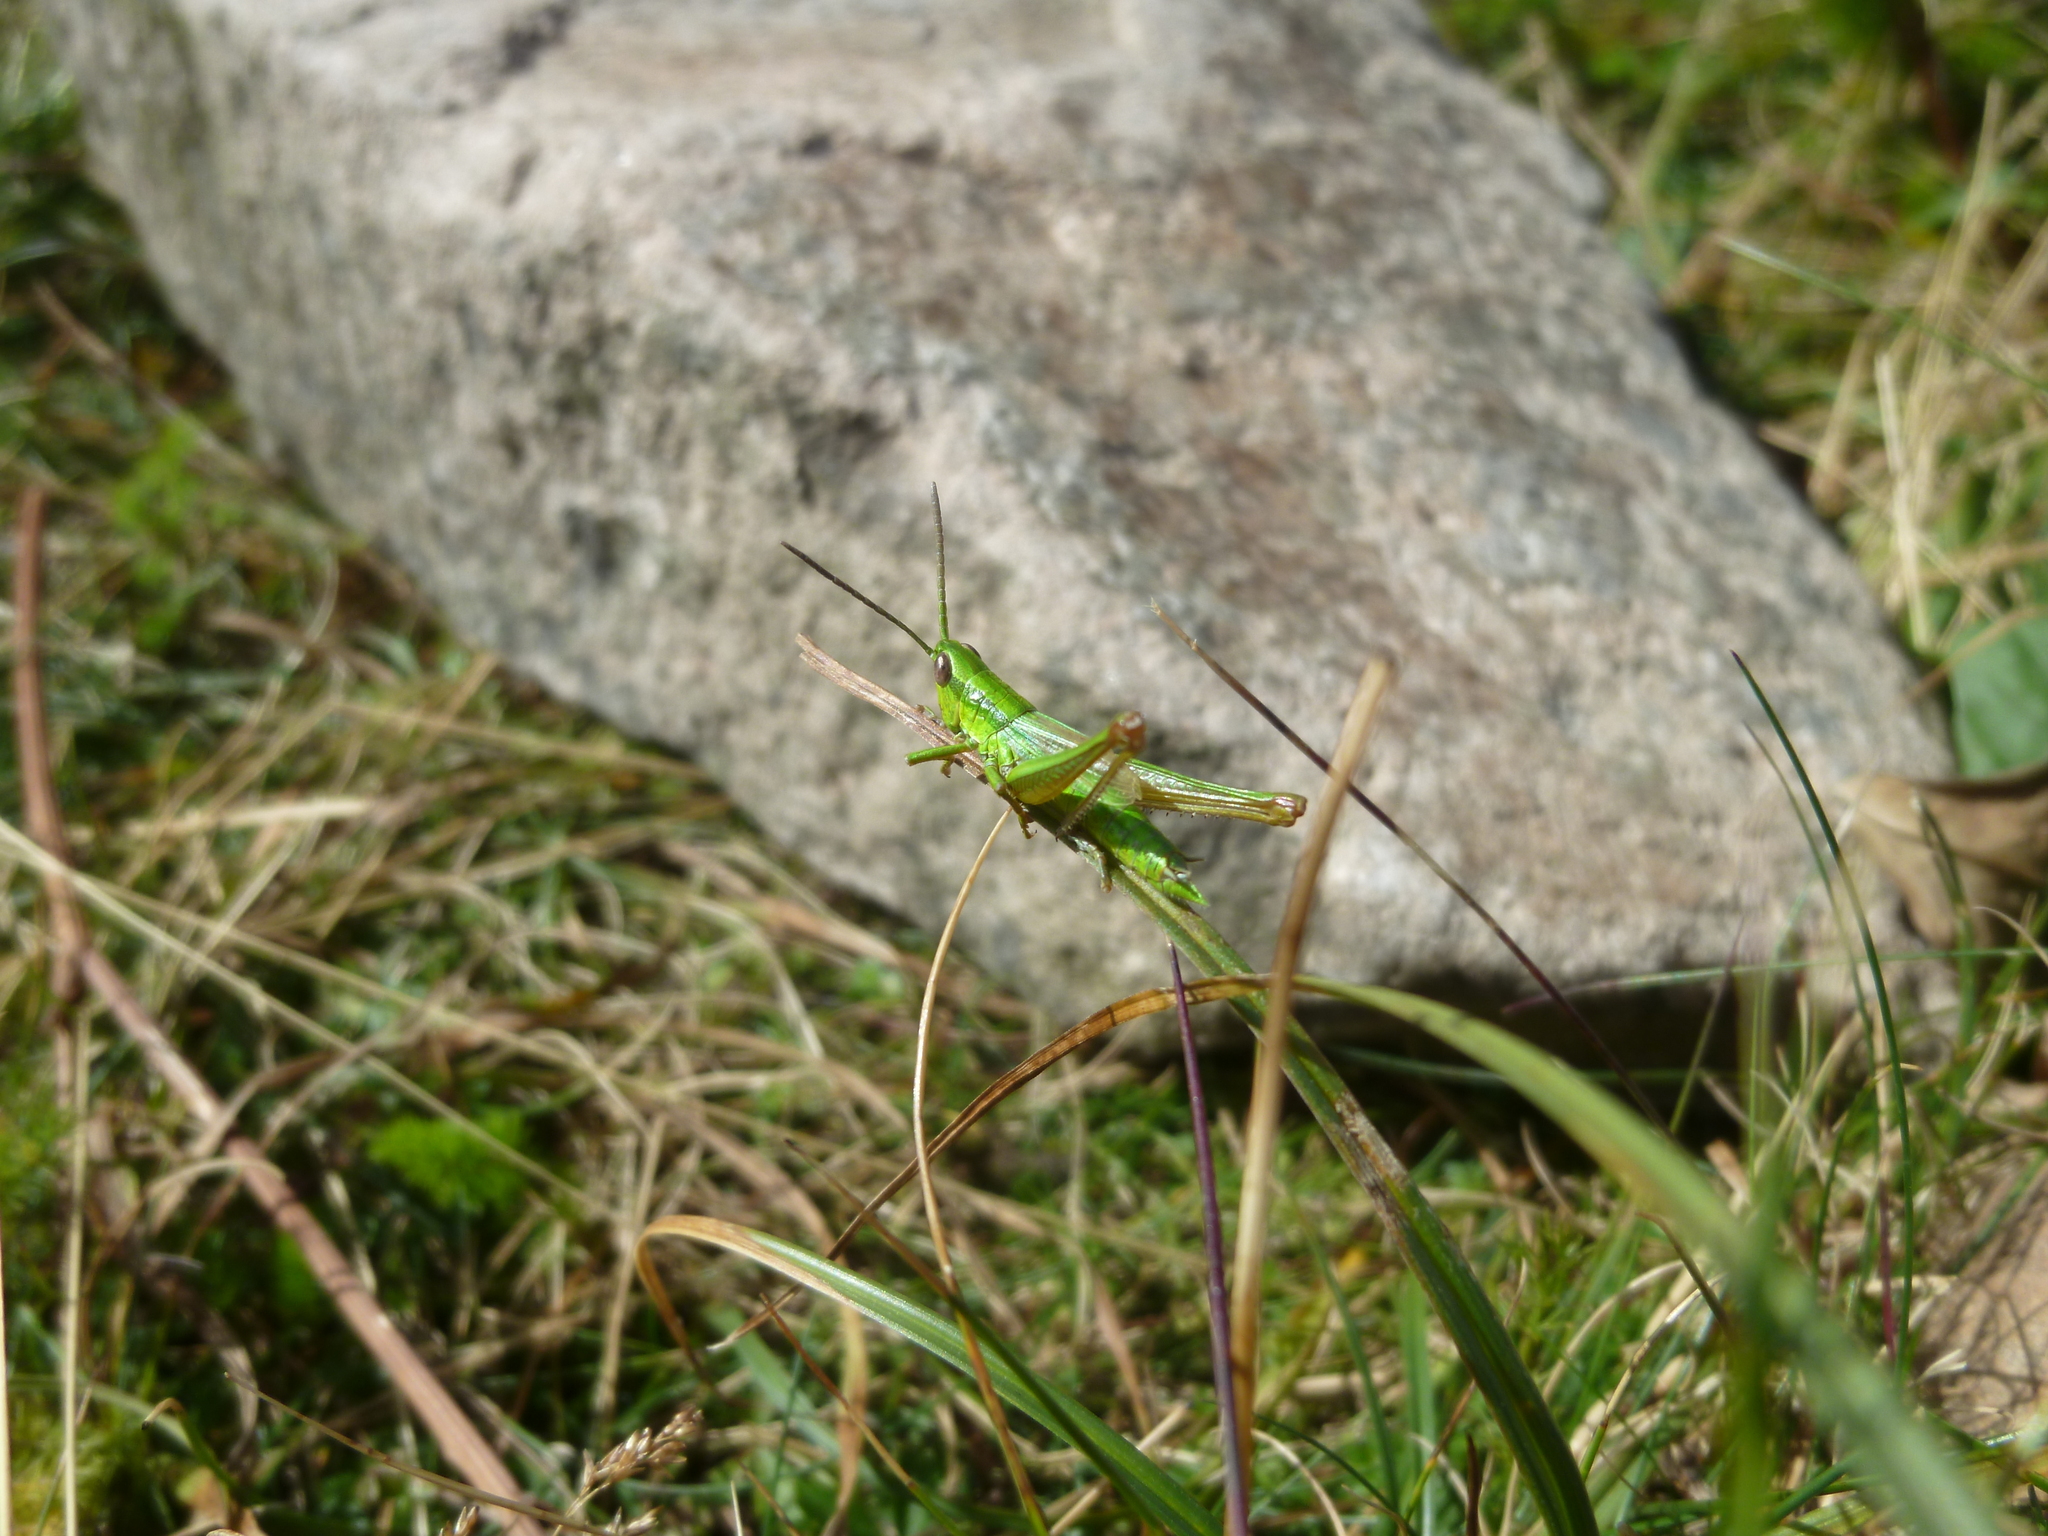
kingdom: Animalia
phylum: Arthropoda
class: Insecta
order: Orthoptera
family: Acrididae
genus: Euthystira
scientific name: Euthystira brachyptera
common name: Small gold grasshopper
